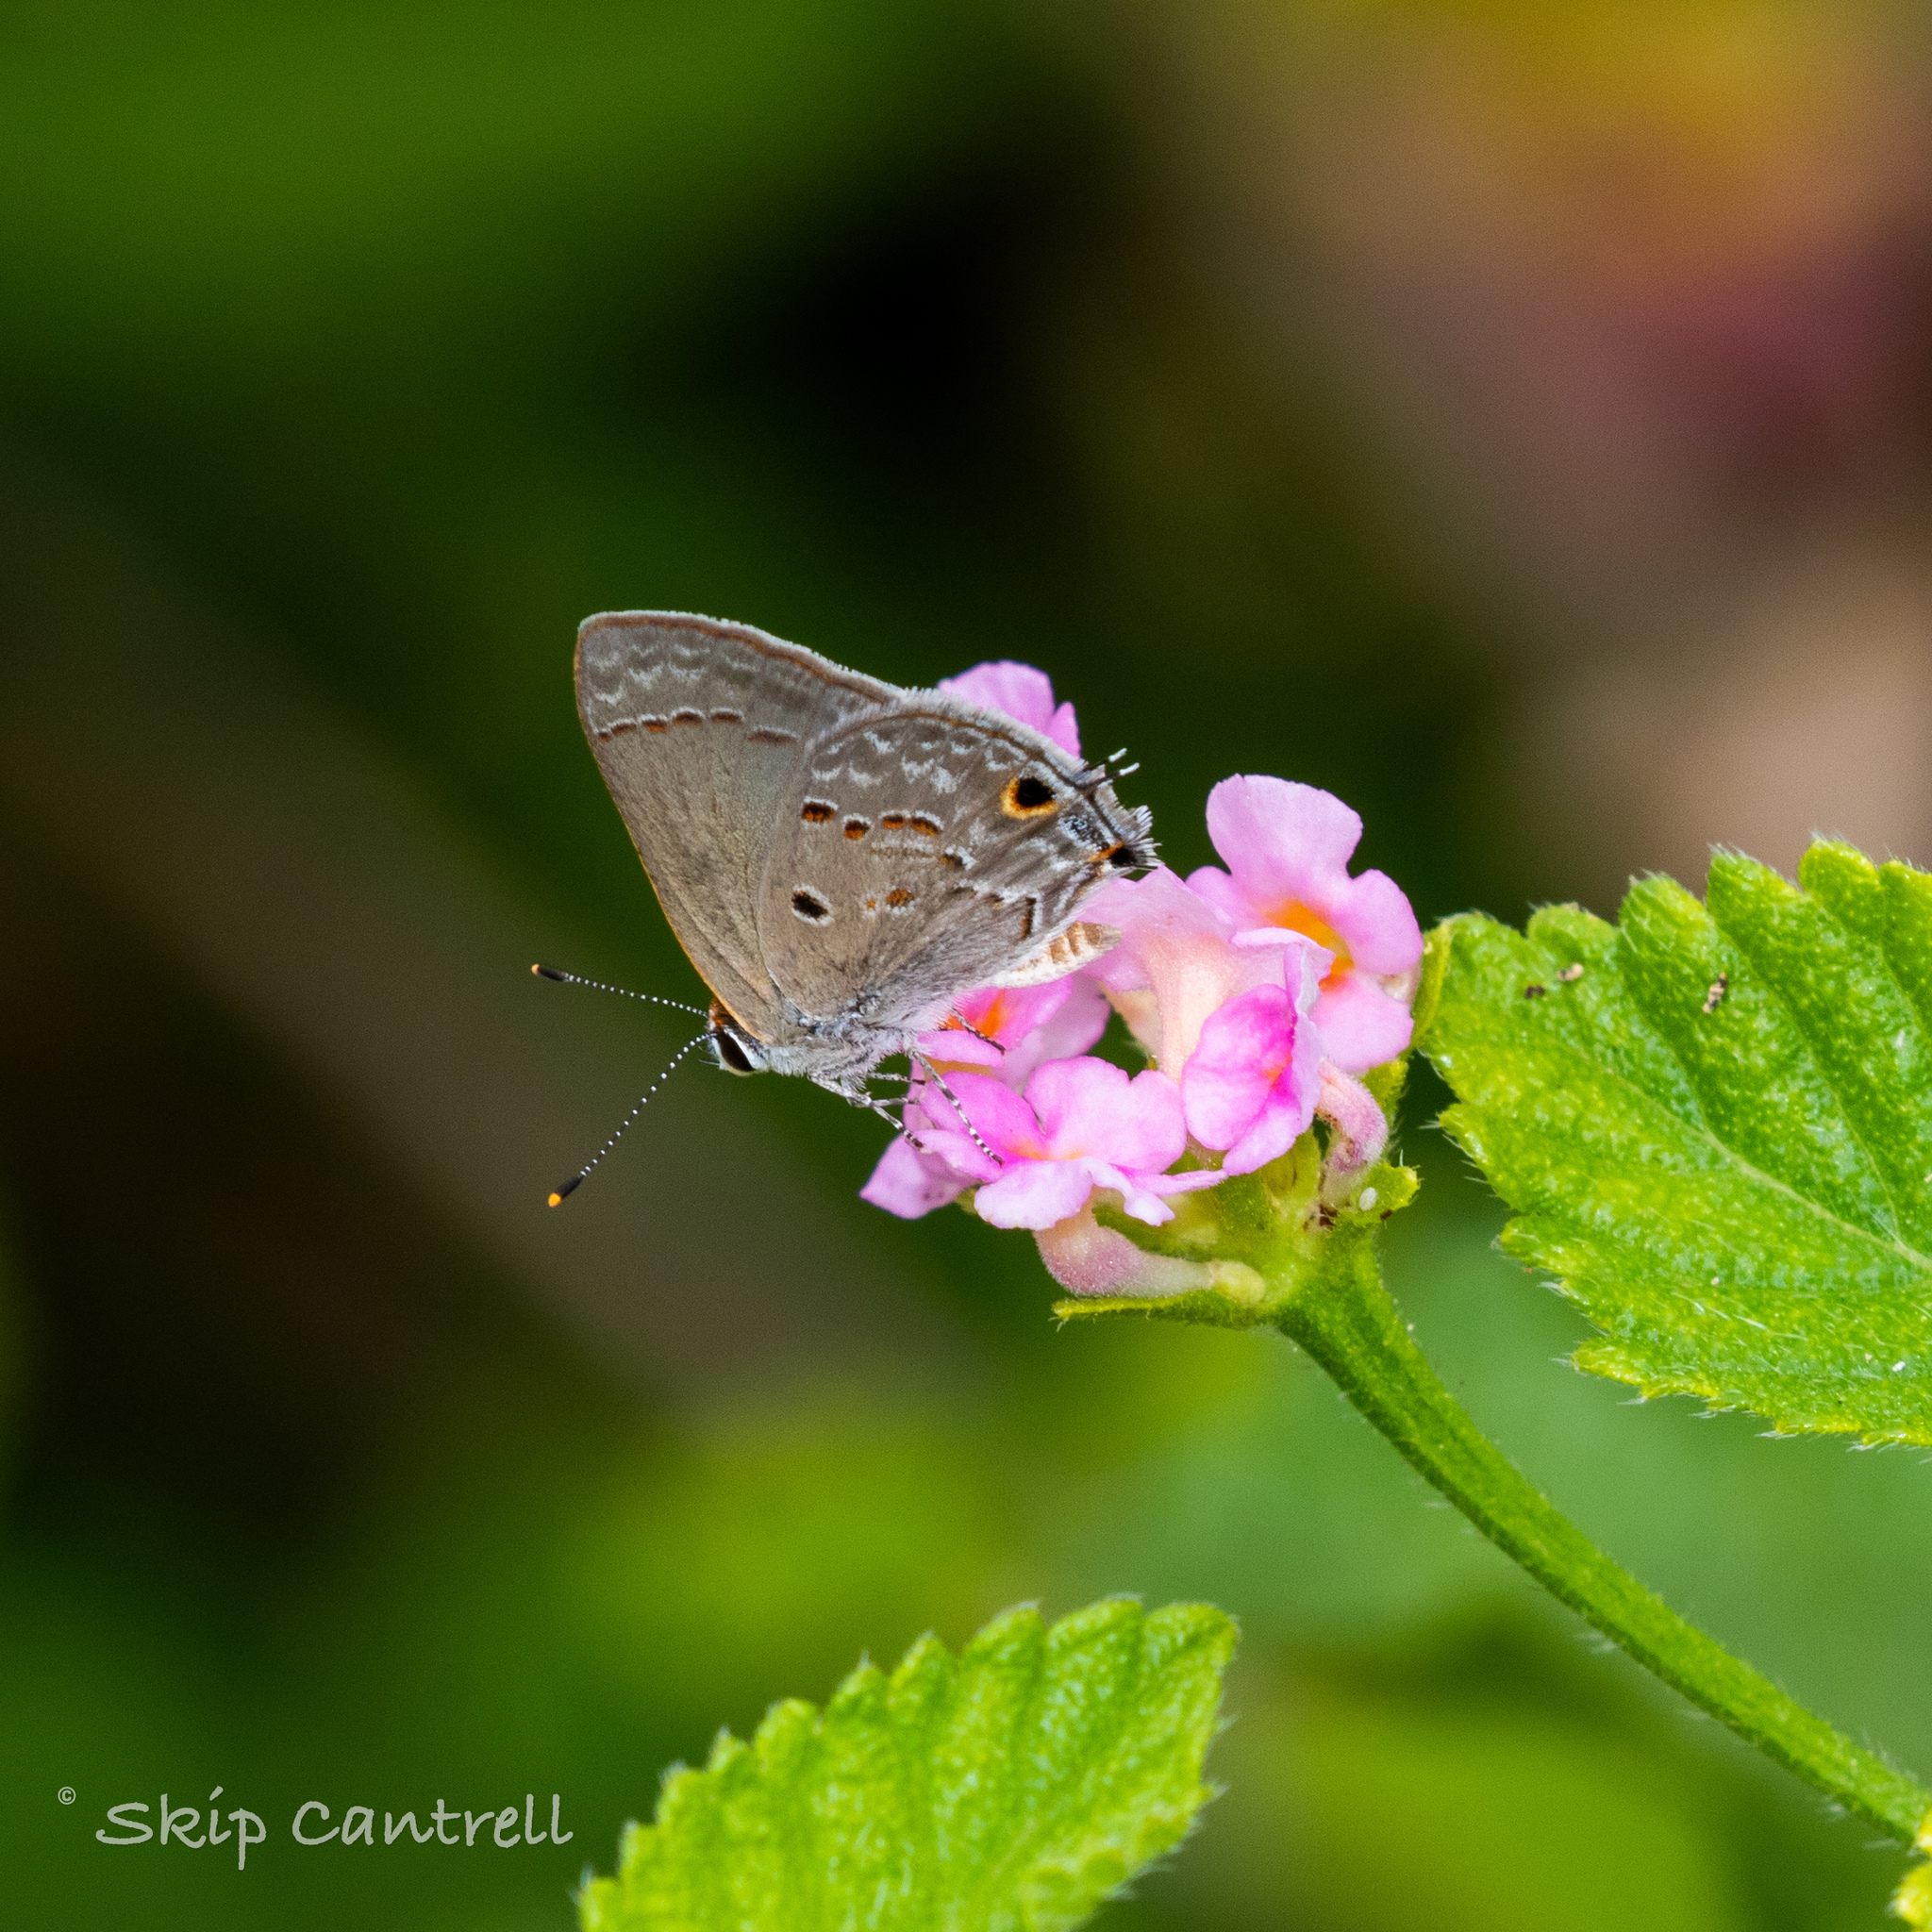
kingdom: Animalia
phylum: Arthropoda
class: Insecta
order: Lepidoptera
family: Lycaenidae
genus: Callicista
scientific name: Callicista columella
